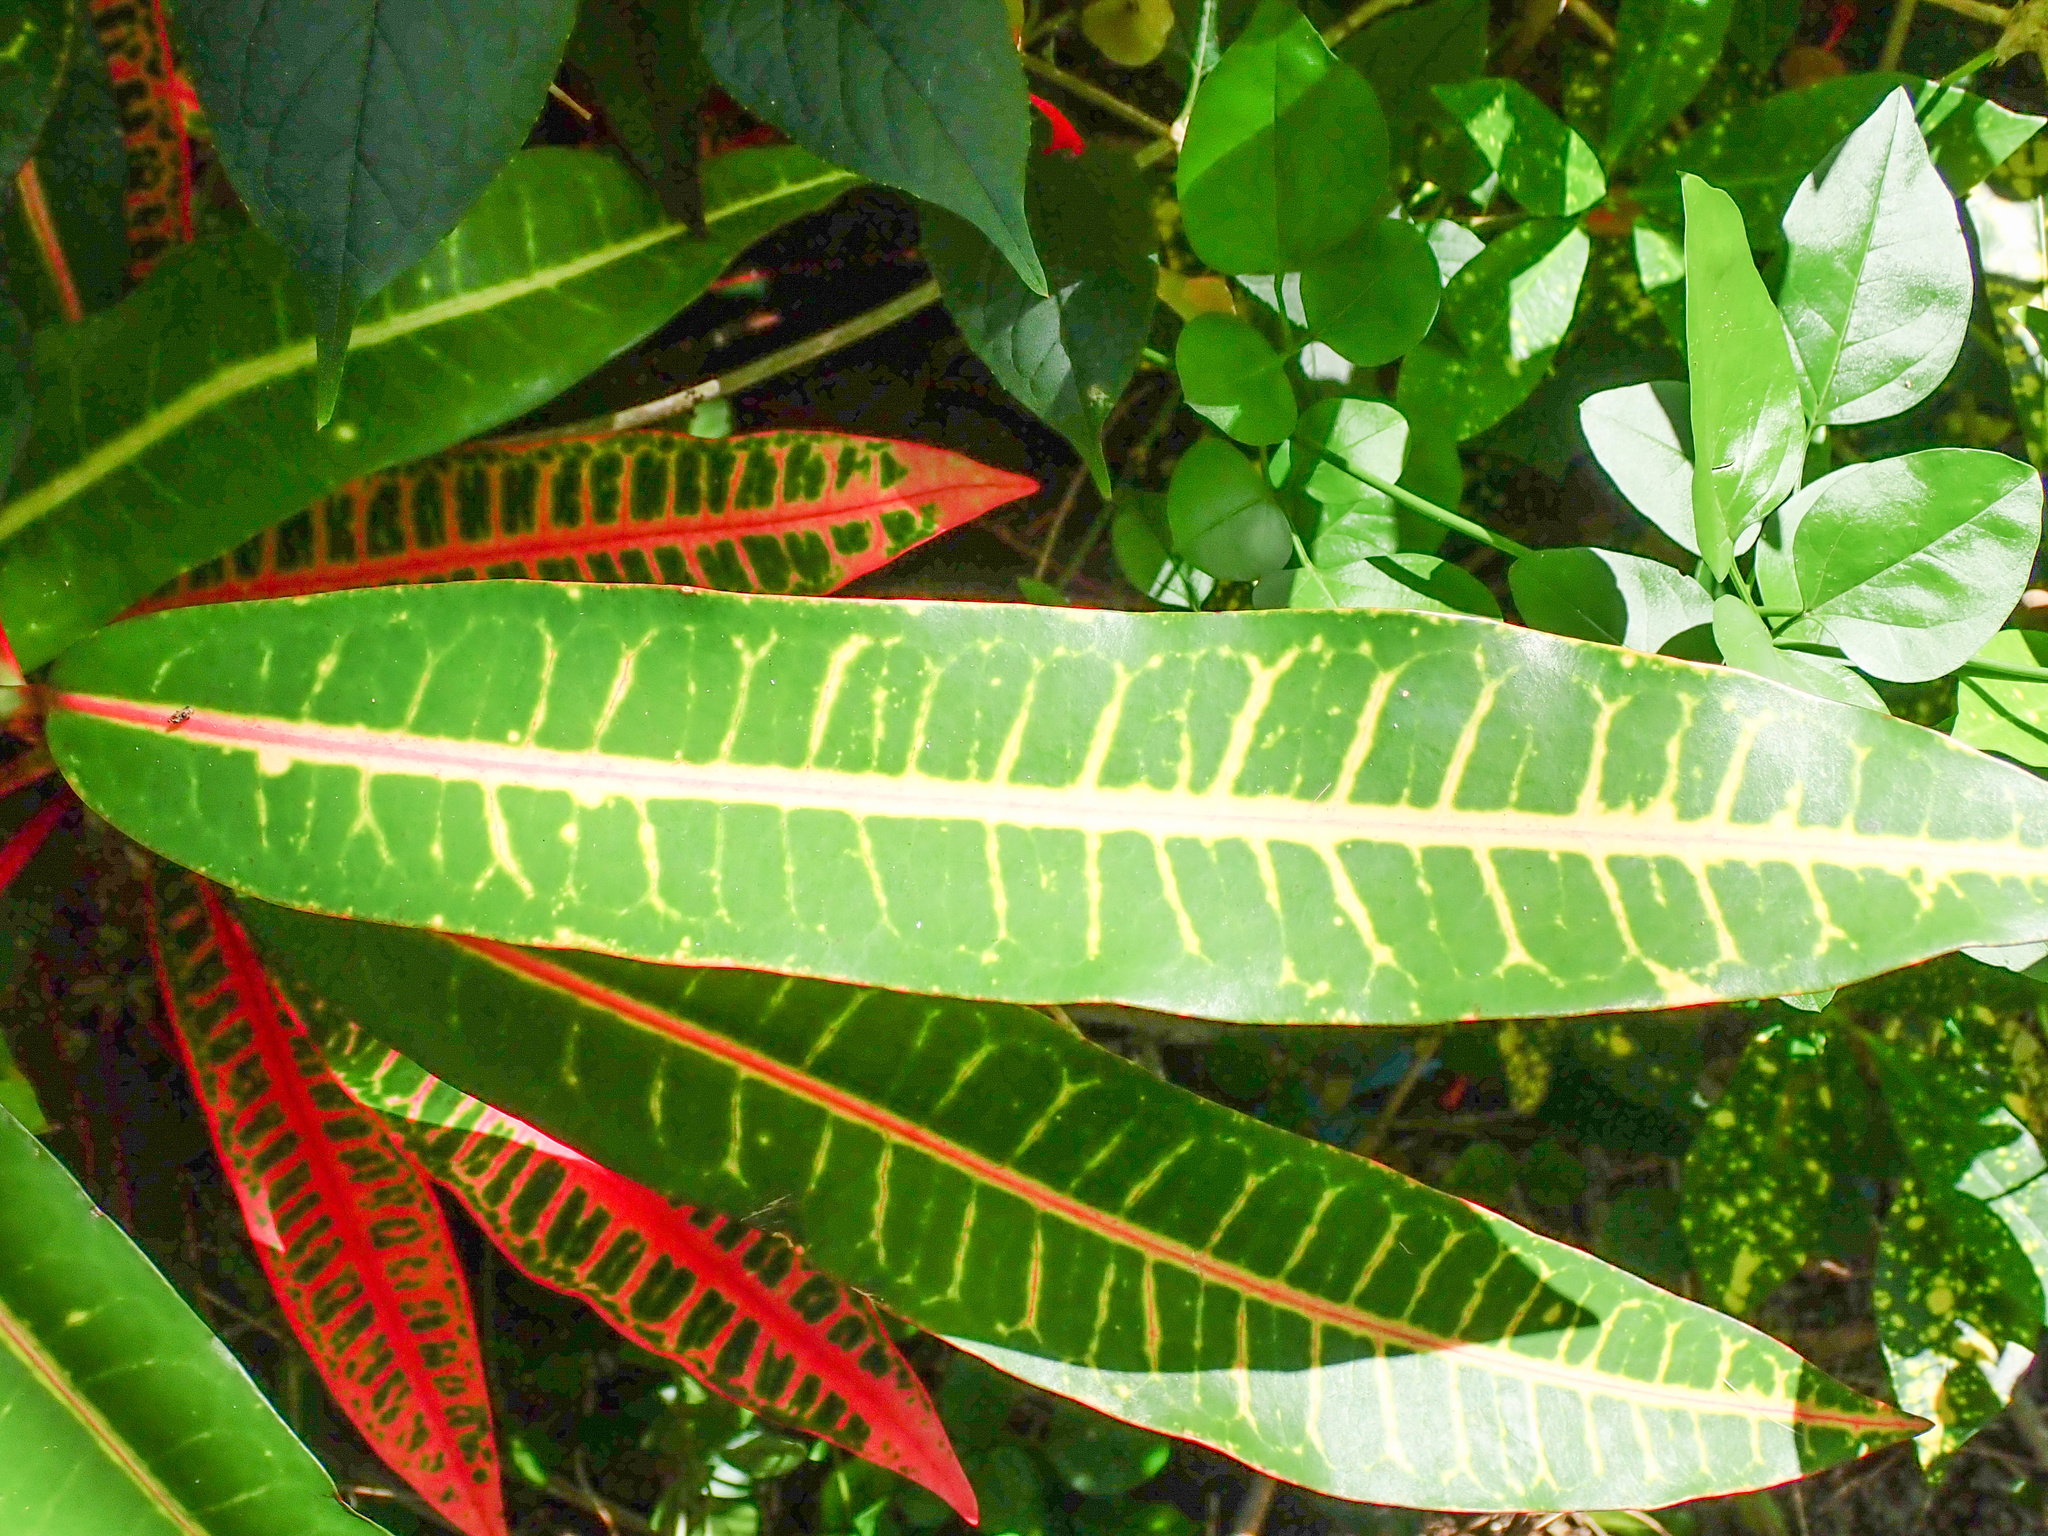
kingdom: Plantae
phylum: Tracheophyta
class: Magnoliopsida
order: Malpighiales
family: Euphorbiaceae
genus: Codiaeum
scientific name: Codiaeum variegatum
